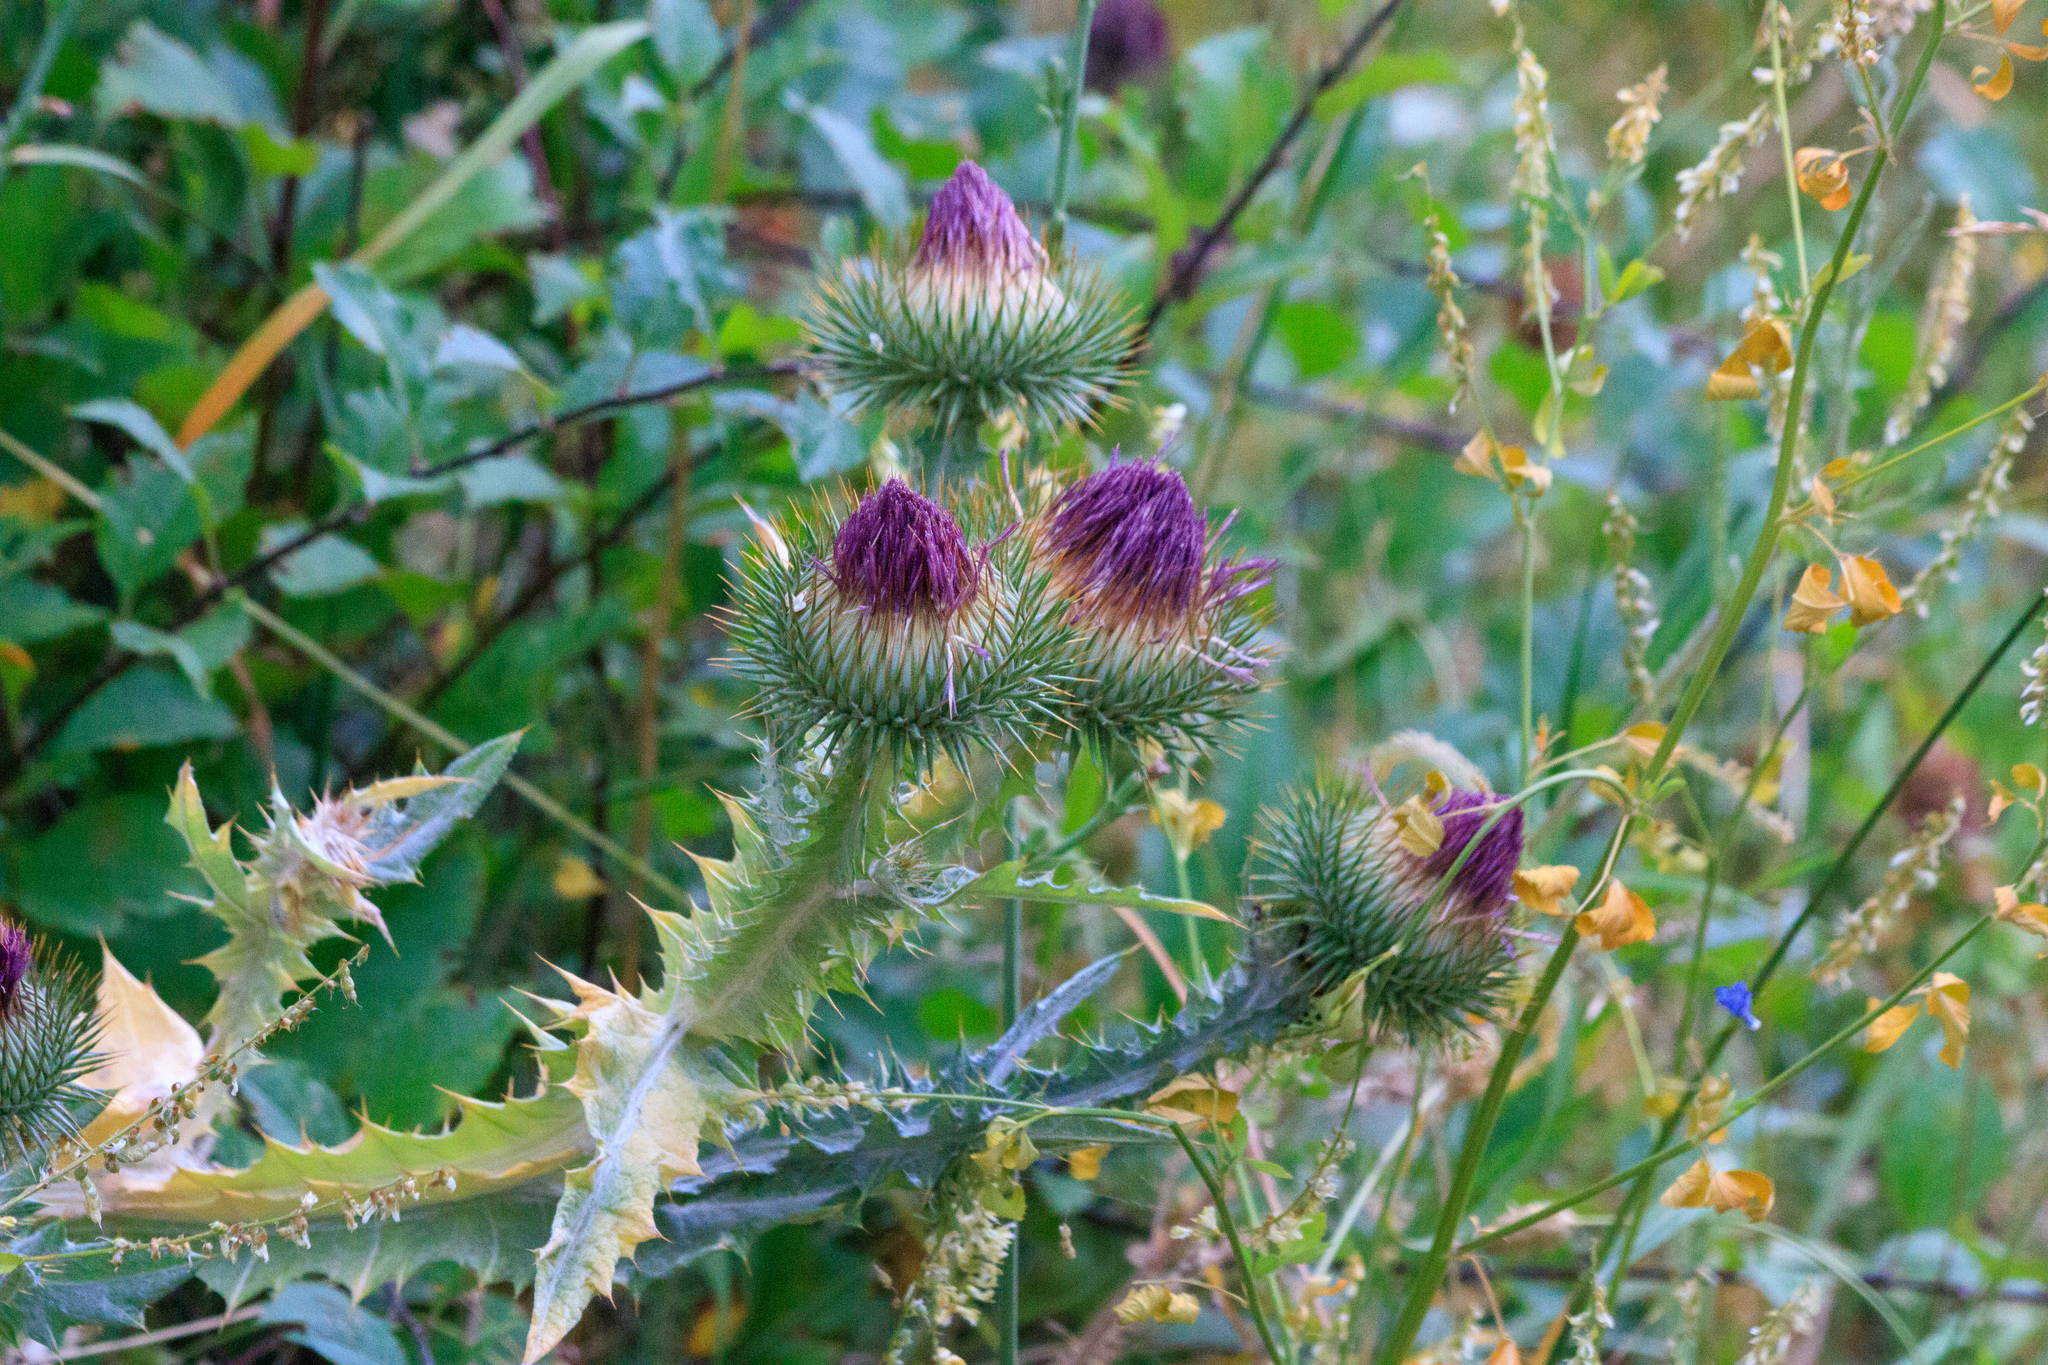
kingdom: Plantae
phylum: Tracheophyta
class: Magnoliopsida
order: Asterales
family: Asteraceae
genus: Onopordum
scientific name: Onopordum acanthium
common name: Scotch thistle
